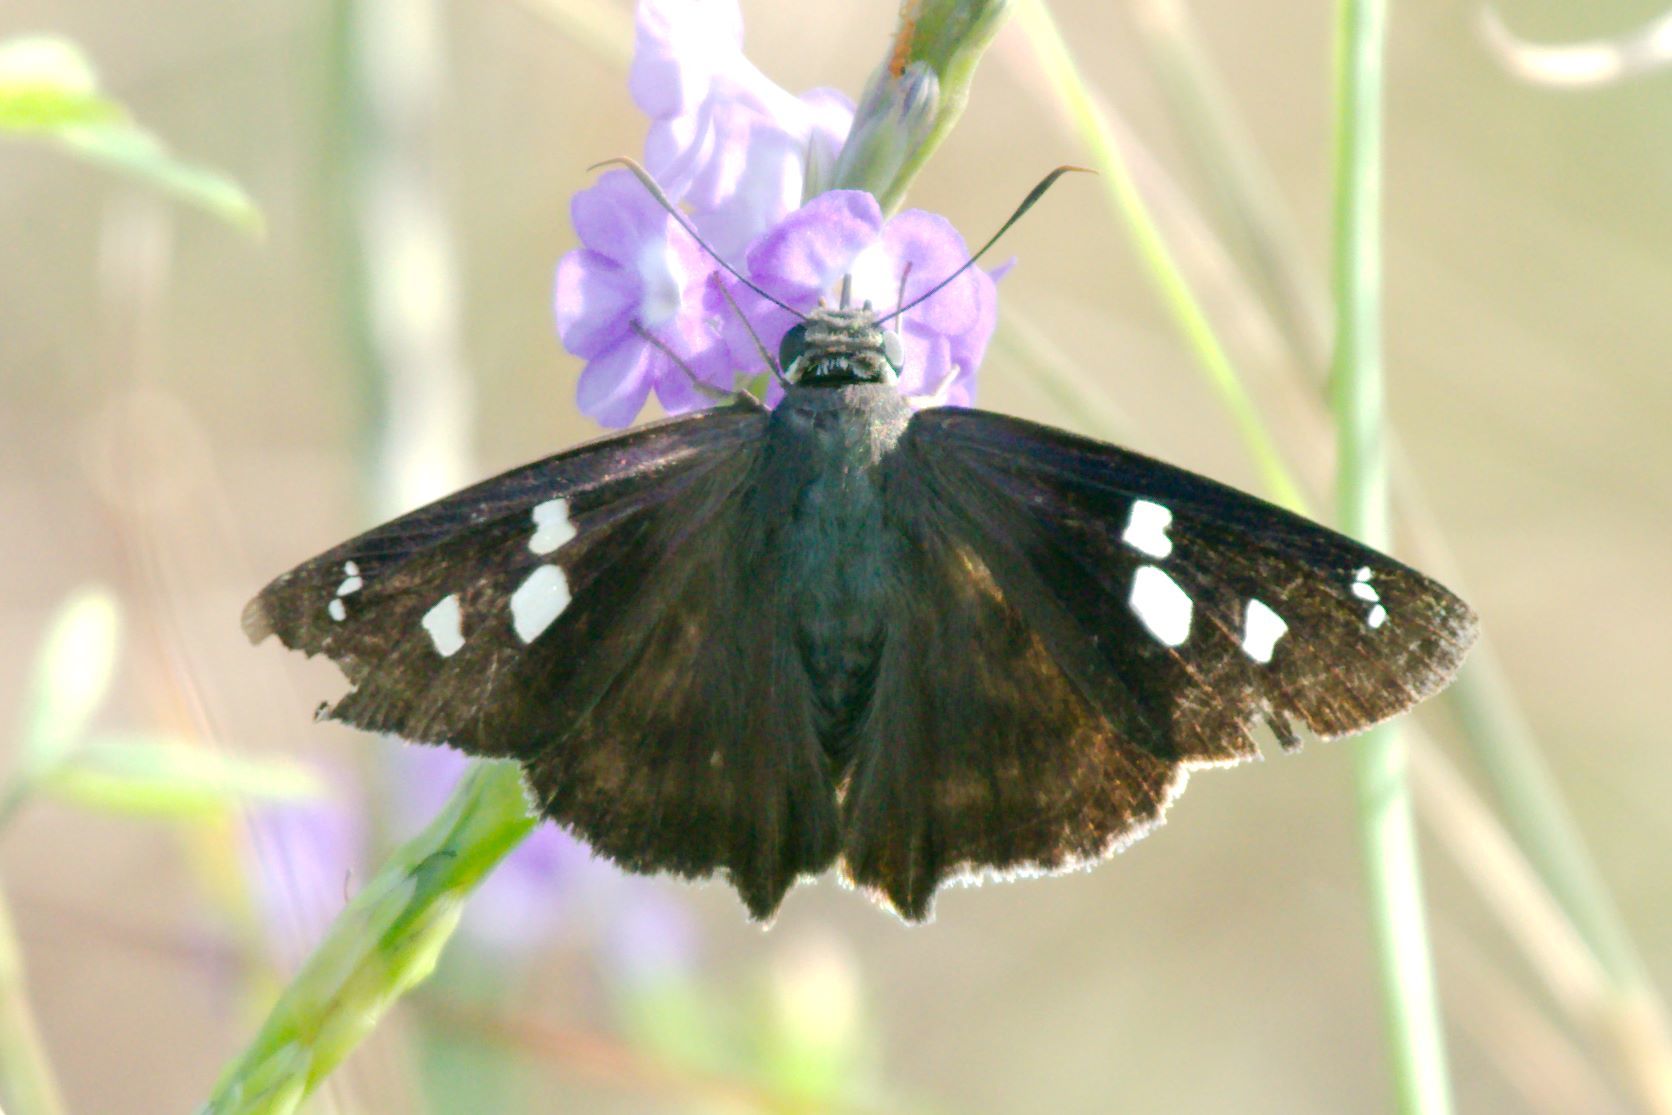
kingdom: Animalia
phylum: Arthropoda
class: Insecta
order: Lepidoptera
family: Hesperiidae
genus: Polygonus
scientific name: Polygonus leo
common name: Hammoch skipper
